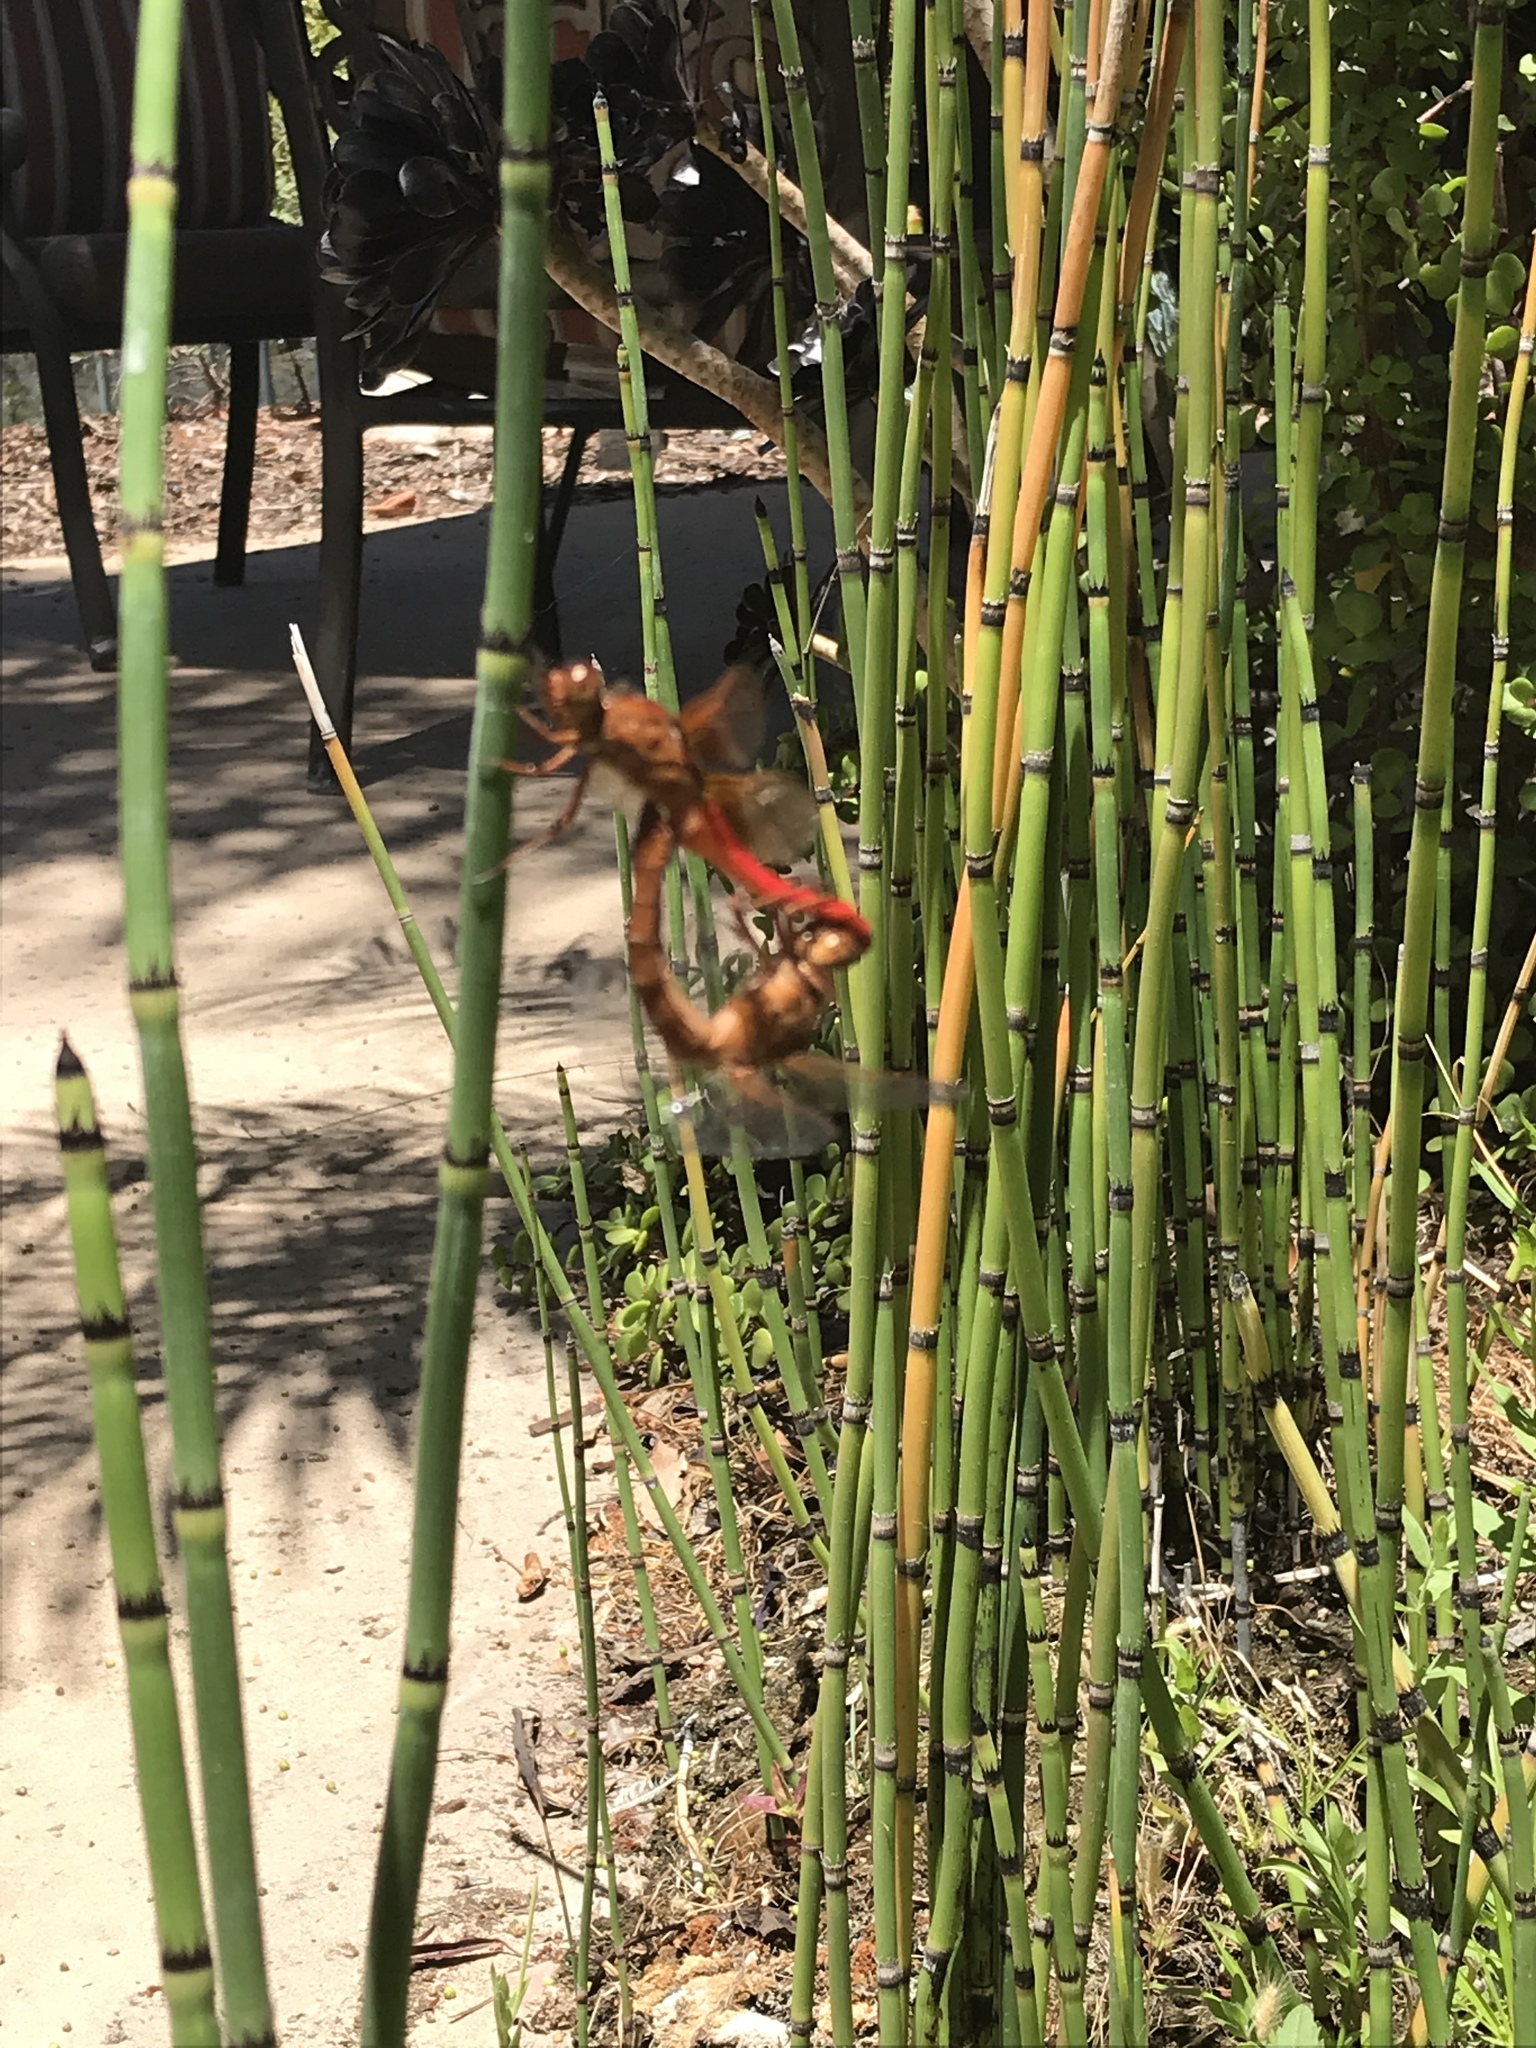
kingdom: Animalia
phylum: Arthropoda
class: Insecta
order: Odonata
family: Libellulidae
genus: Libellula
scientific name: Libellula croceipennis
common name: Neon skimmer
